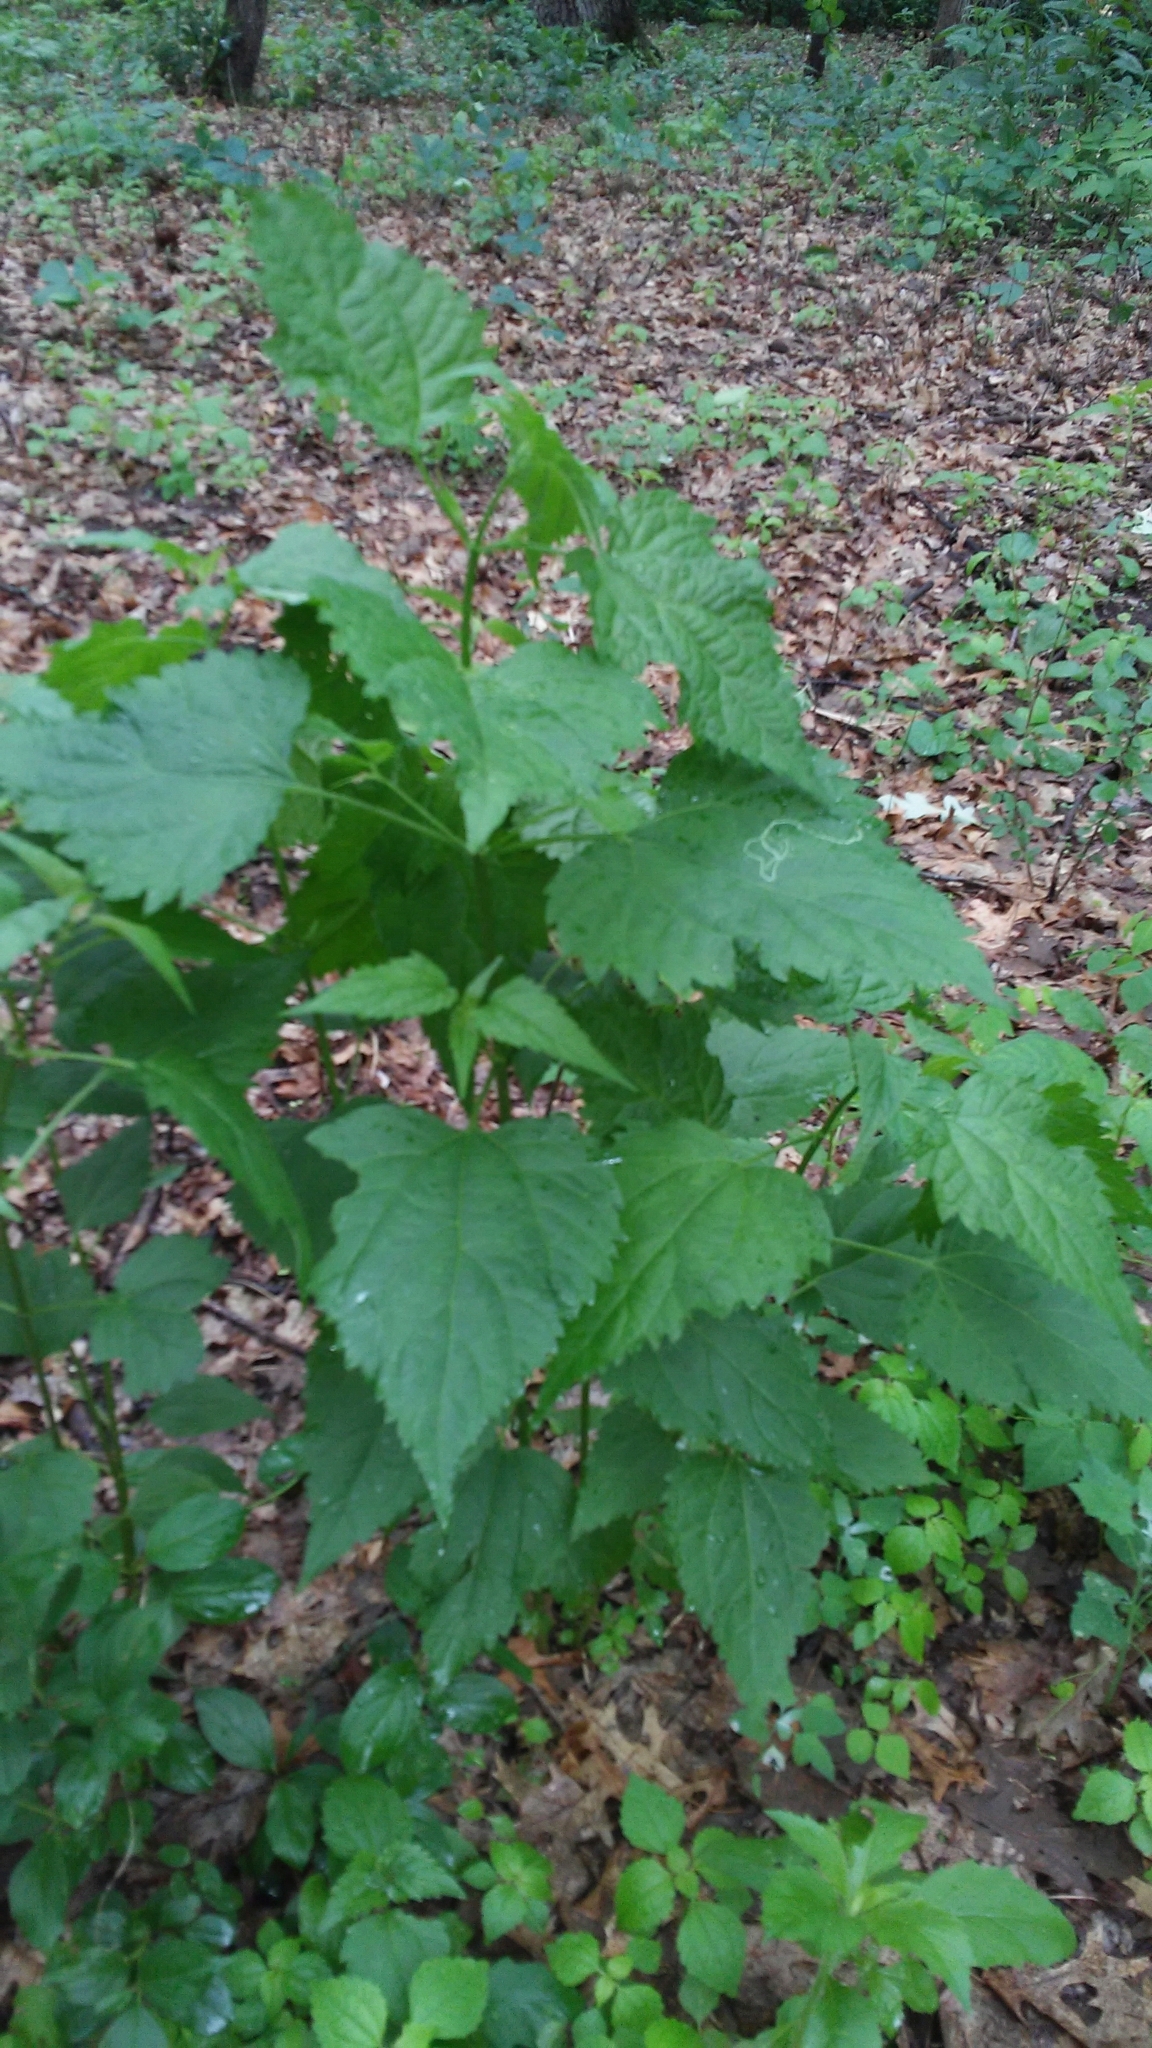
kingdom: Plantae
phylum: Tracheophyta
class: Magnoliopsida
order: Asterales
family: Asteraceae
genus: Ageratina
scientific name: Ageratina altissima
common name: White snakeroot
